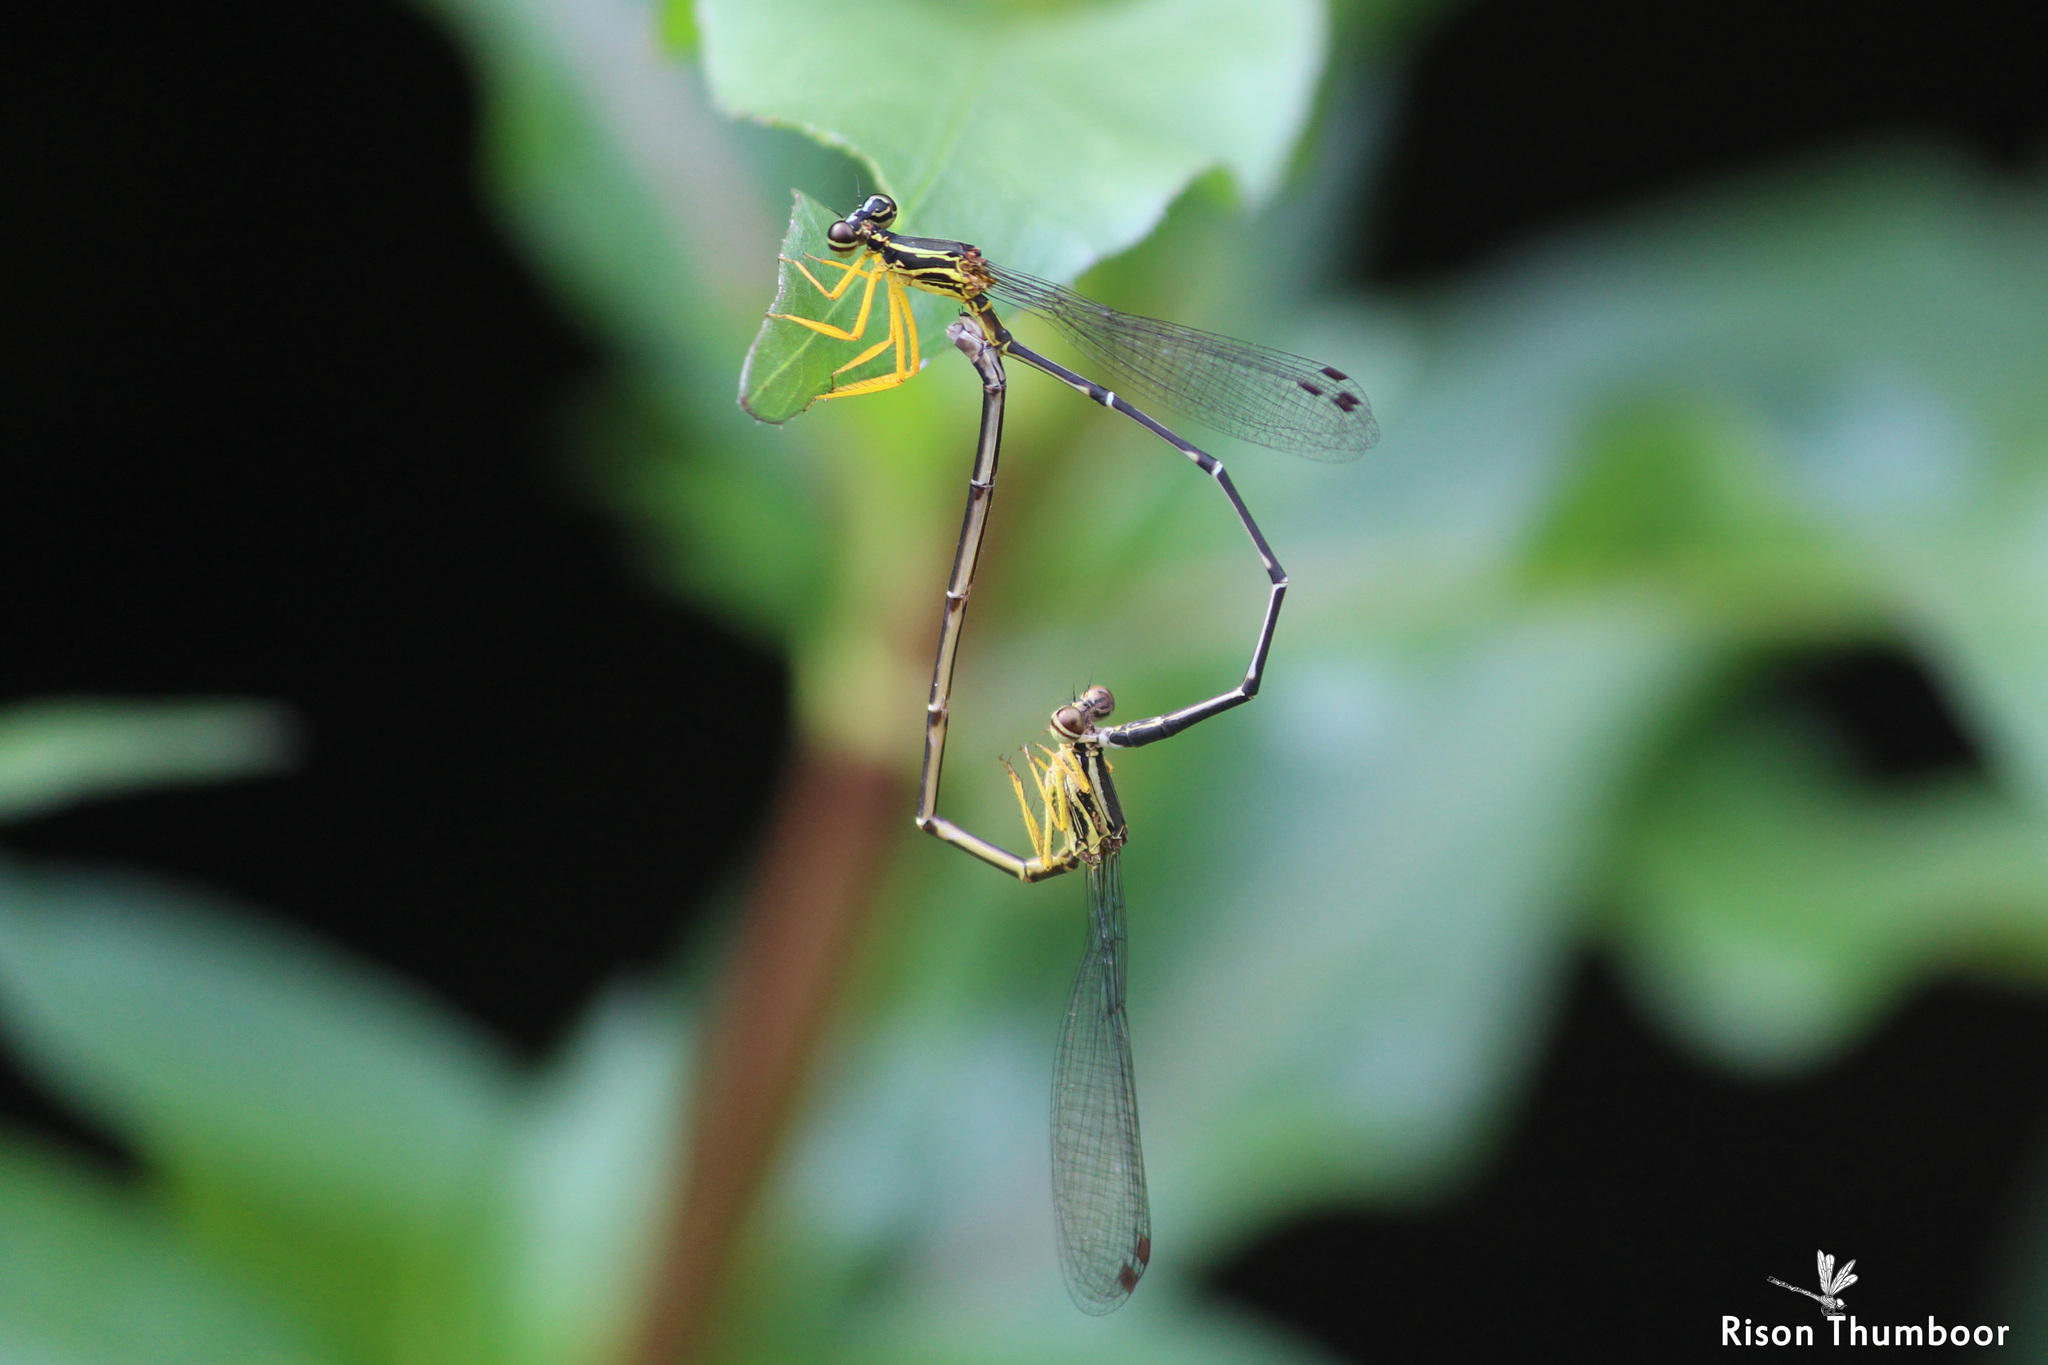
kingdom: Animalia
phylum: Arthropoda
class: Insecta
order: Odonata
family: Platycnemididae
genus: Copera
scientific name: Copera marginipes
